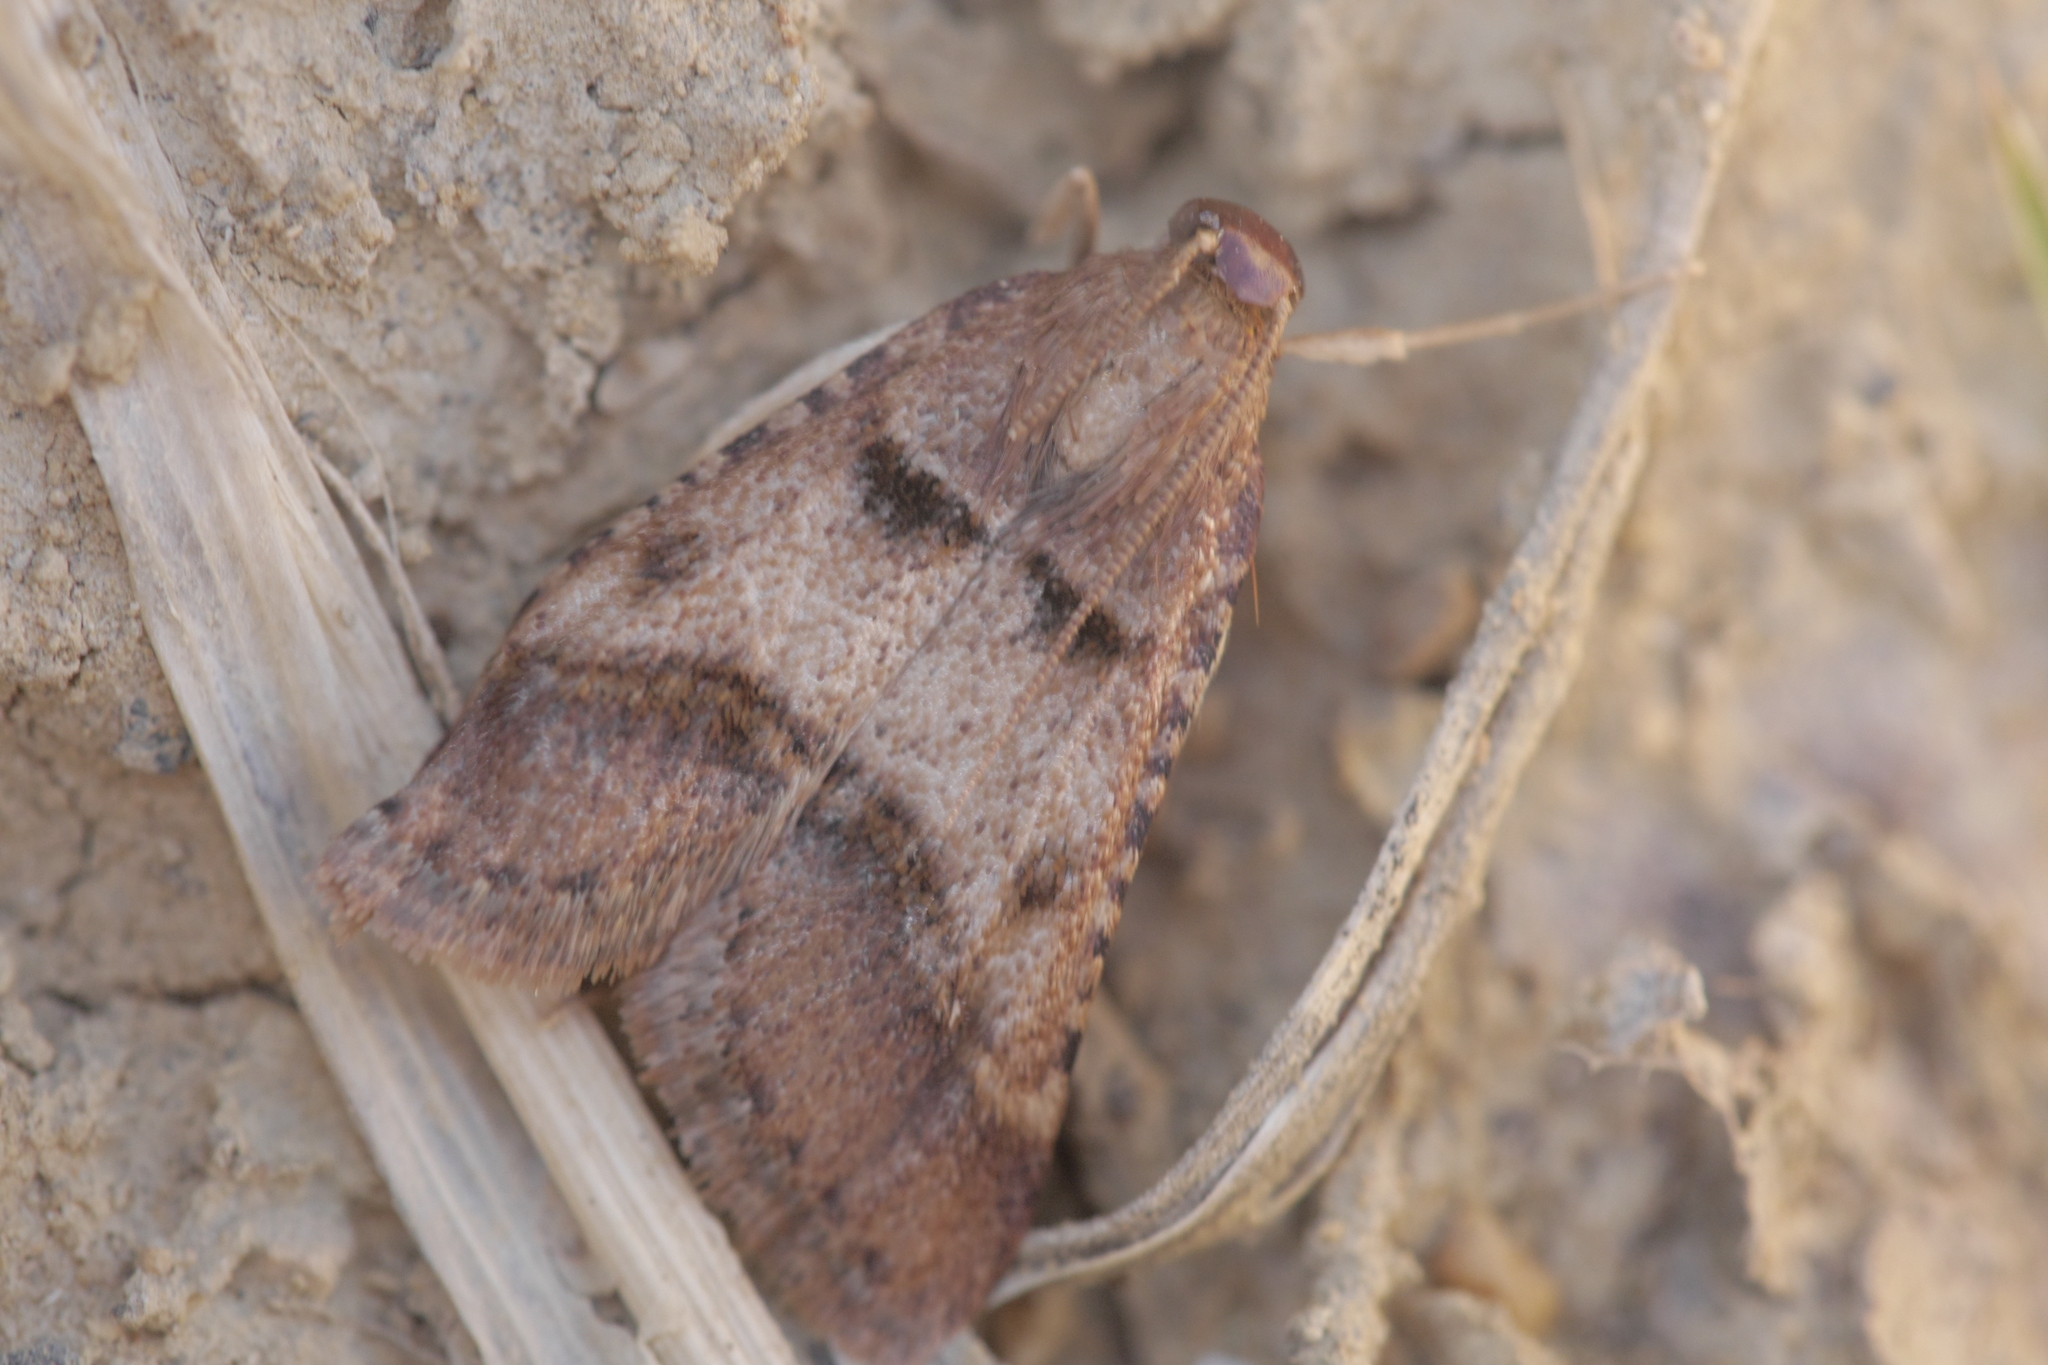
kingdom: Animalia
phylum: Arthropoda
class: Insecta
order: Lepidoptera
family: Pyralidae
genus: Stemmatophora
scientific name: Stemmatophora brunnealis
